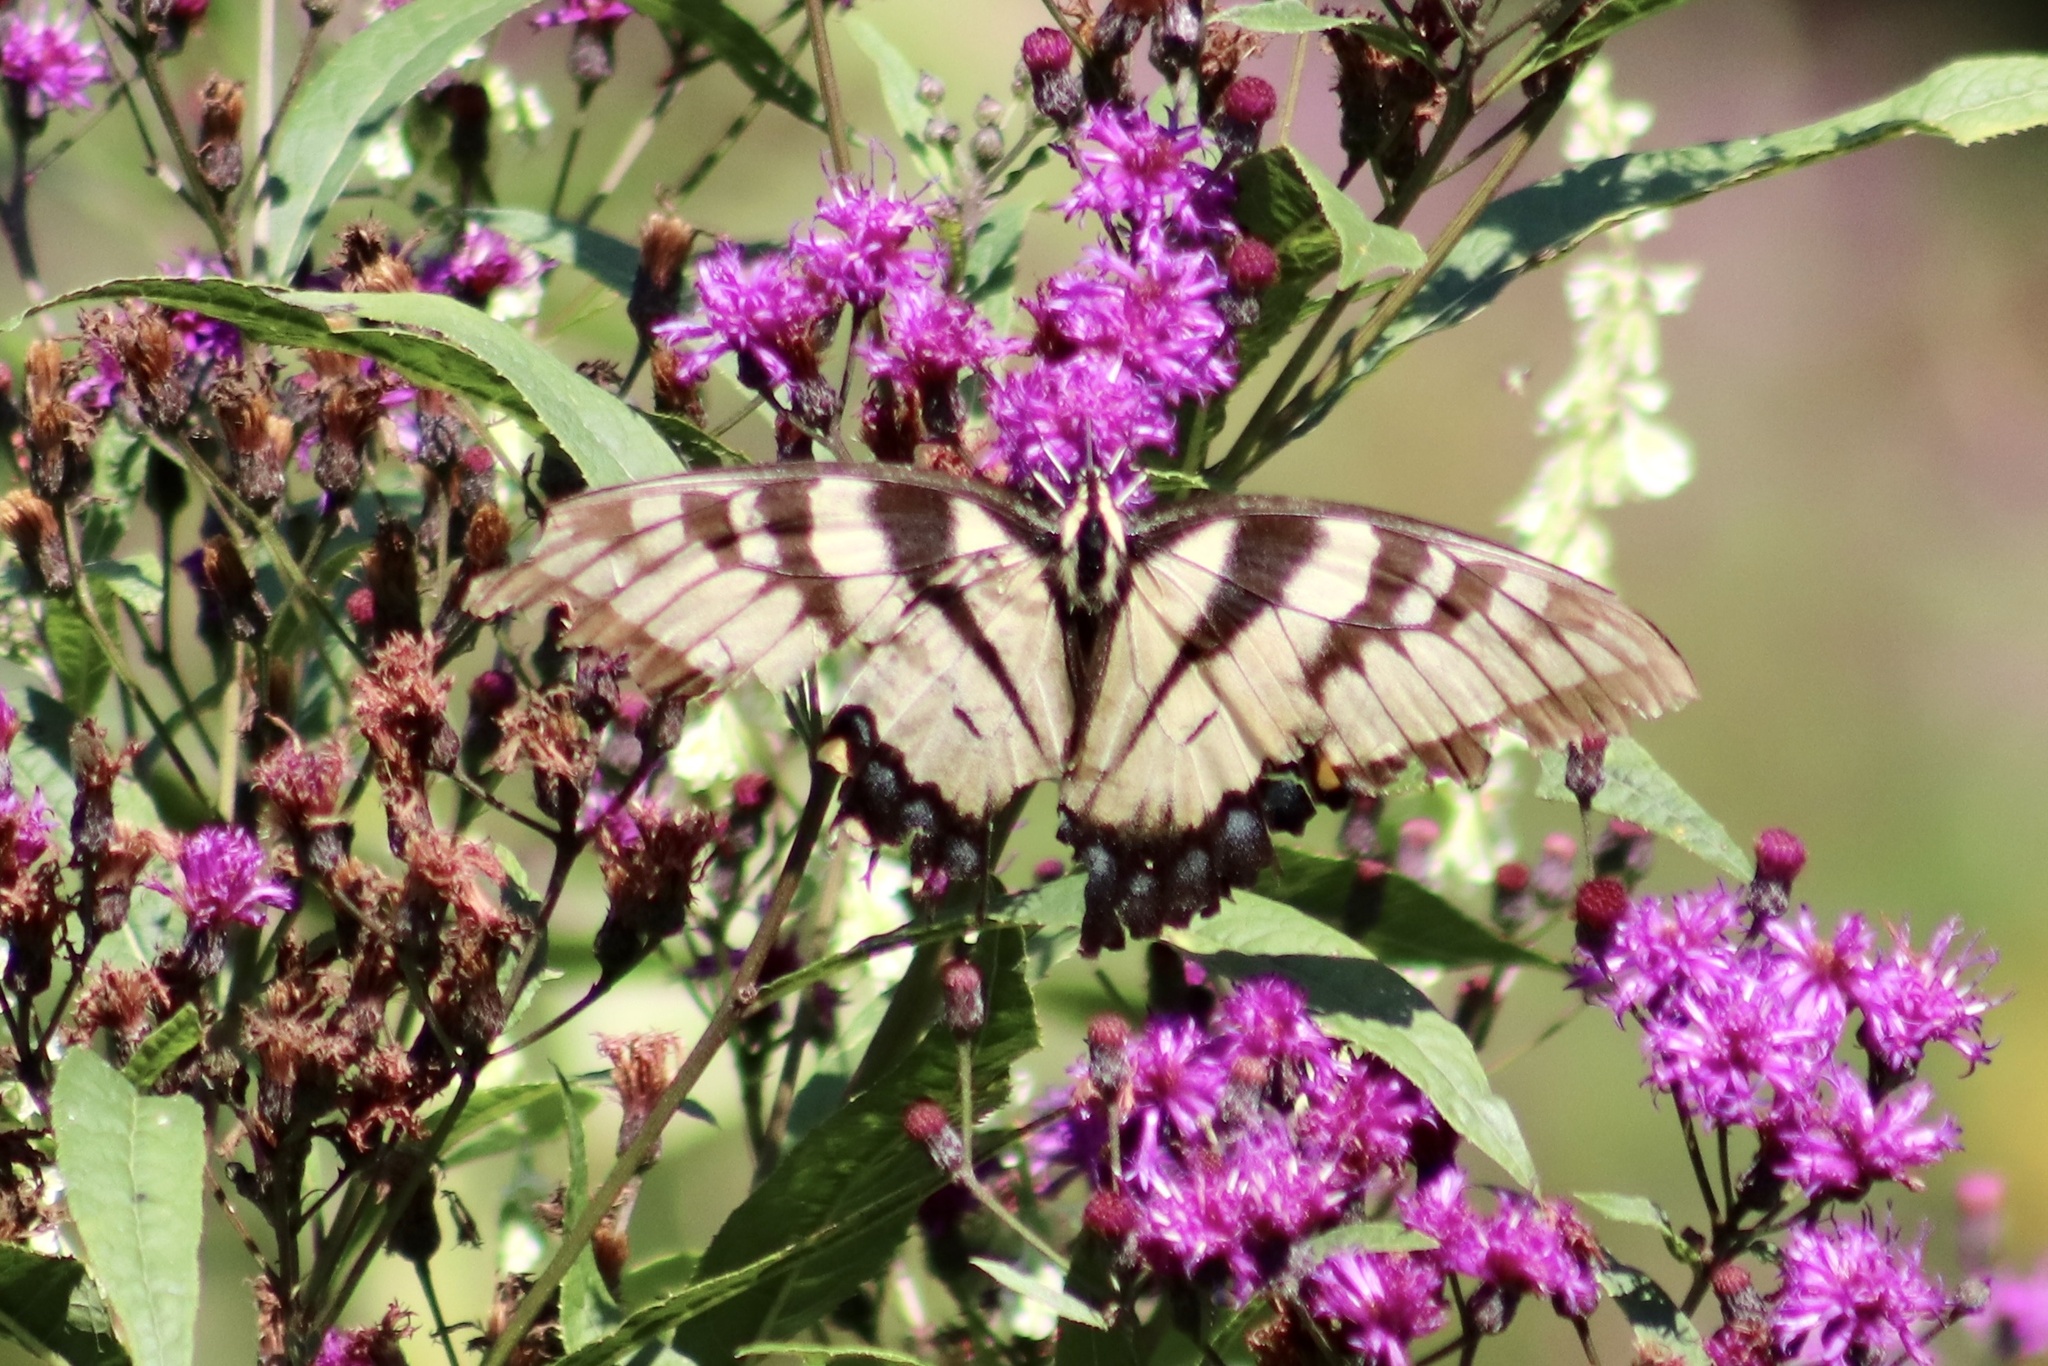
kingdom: Animalia
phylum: Arthropoda
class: Insecta
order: Lepidoptera
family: Papilionidae
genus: Papilio
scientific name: Papilio glaucus
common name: Tiger swallowtail
